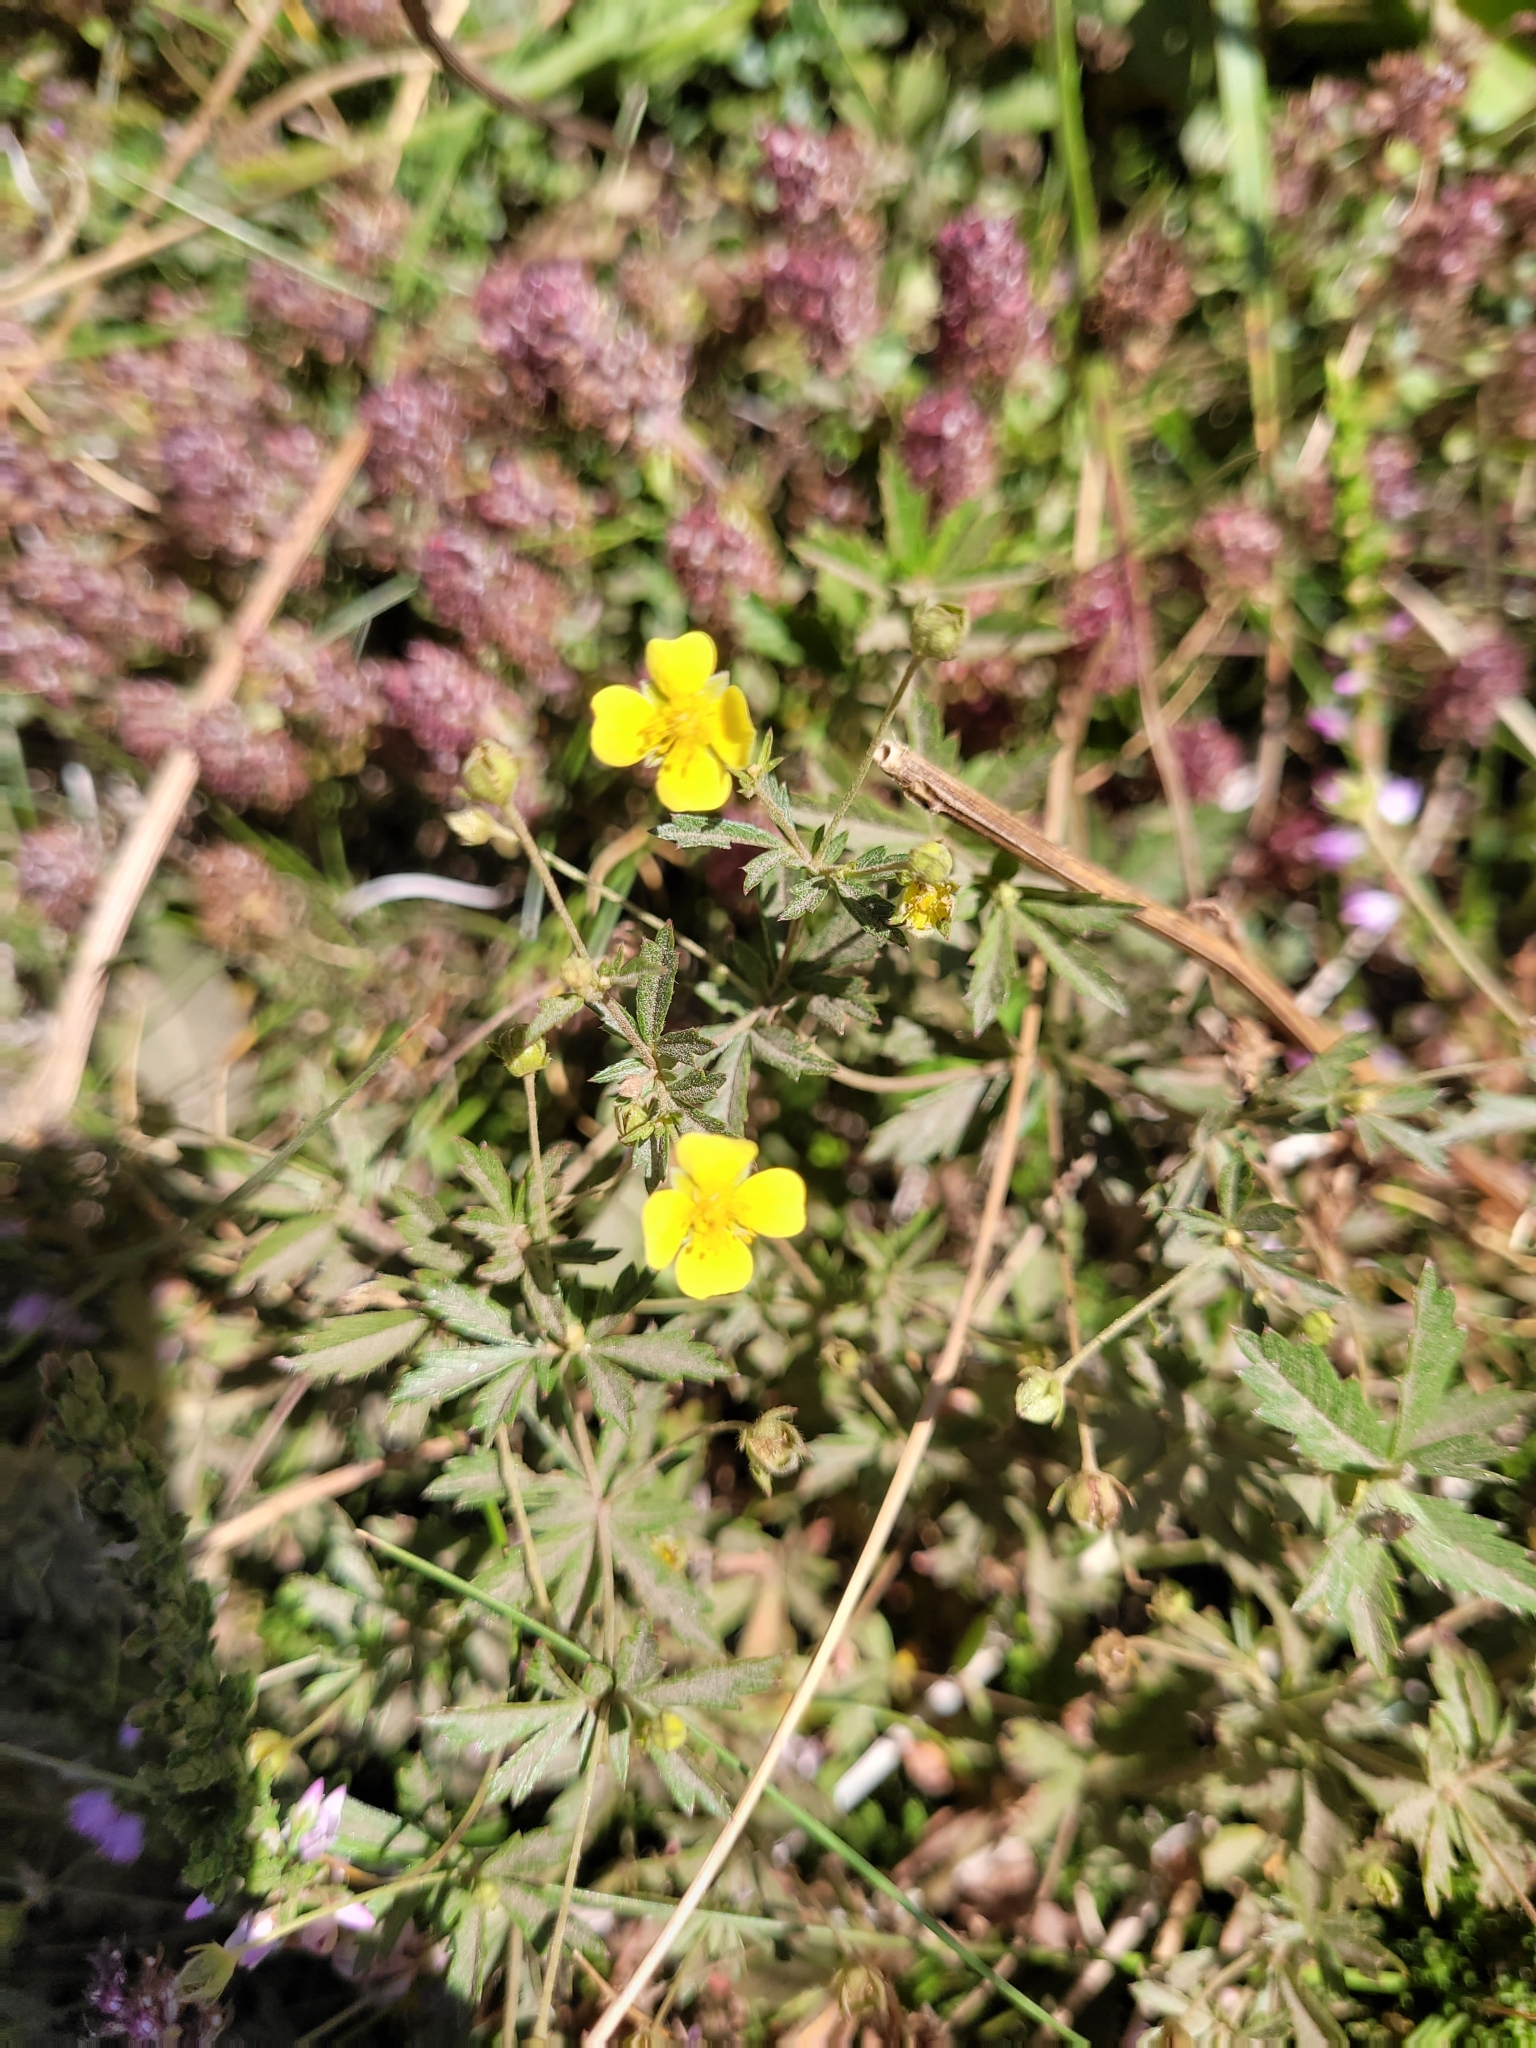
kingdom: Plantae
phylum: Tracheophyta
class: Magnoliopsida
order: Rosales
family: Rosaceae
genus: Potentilla
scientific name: Potentilla erecta
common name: Tormentil
